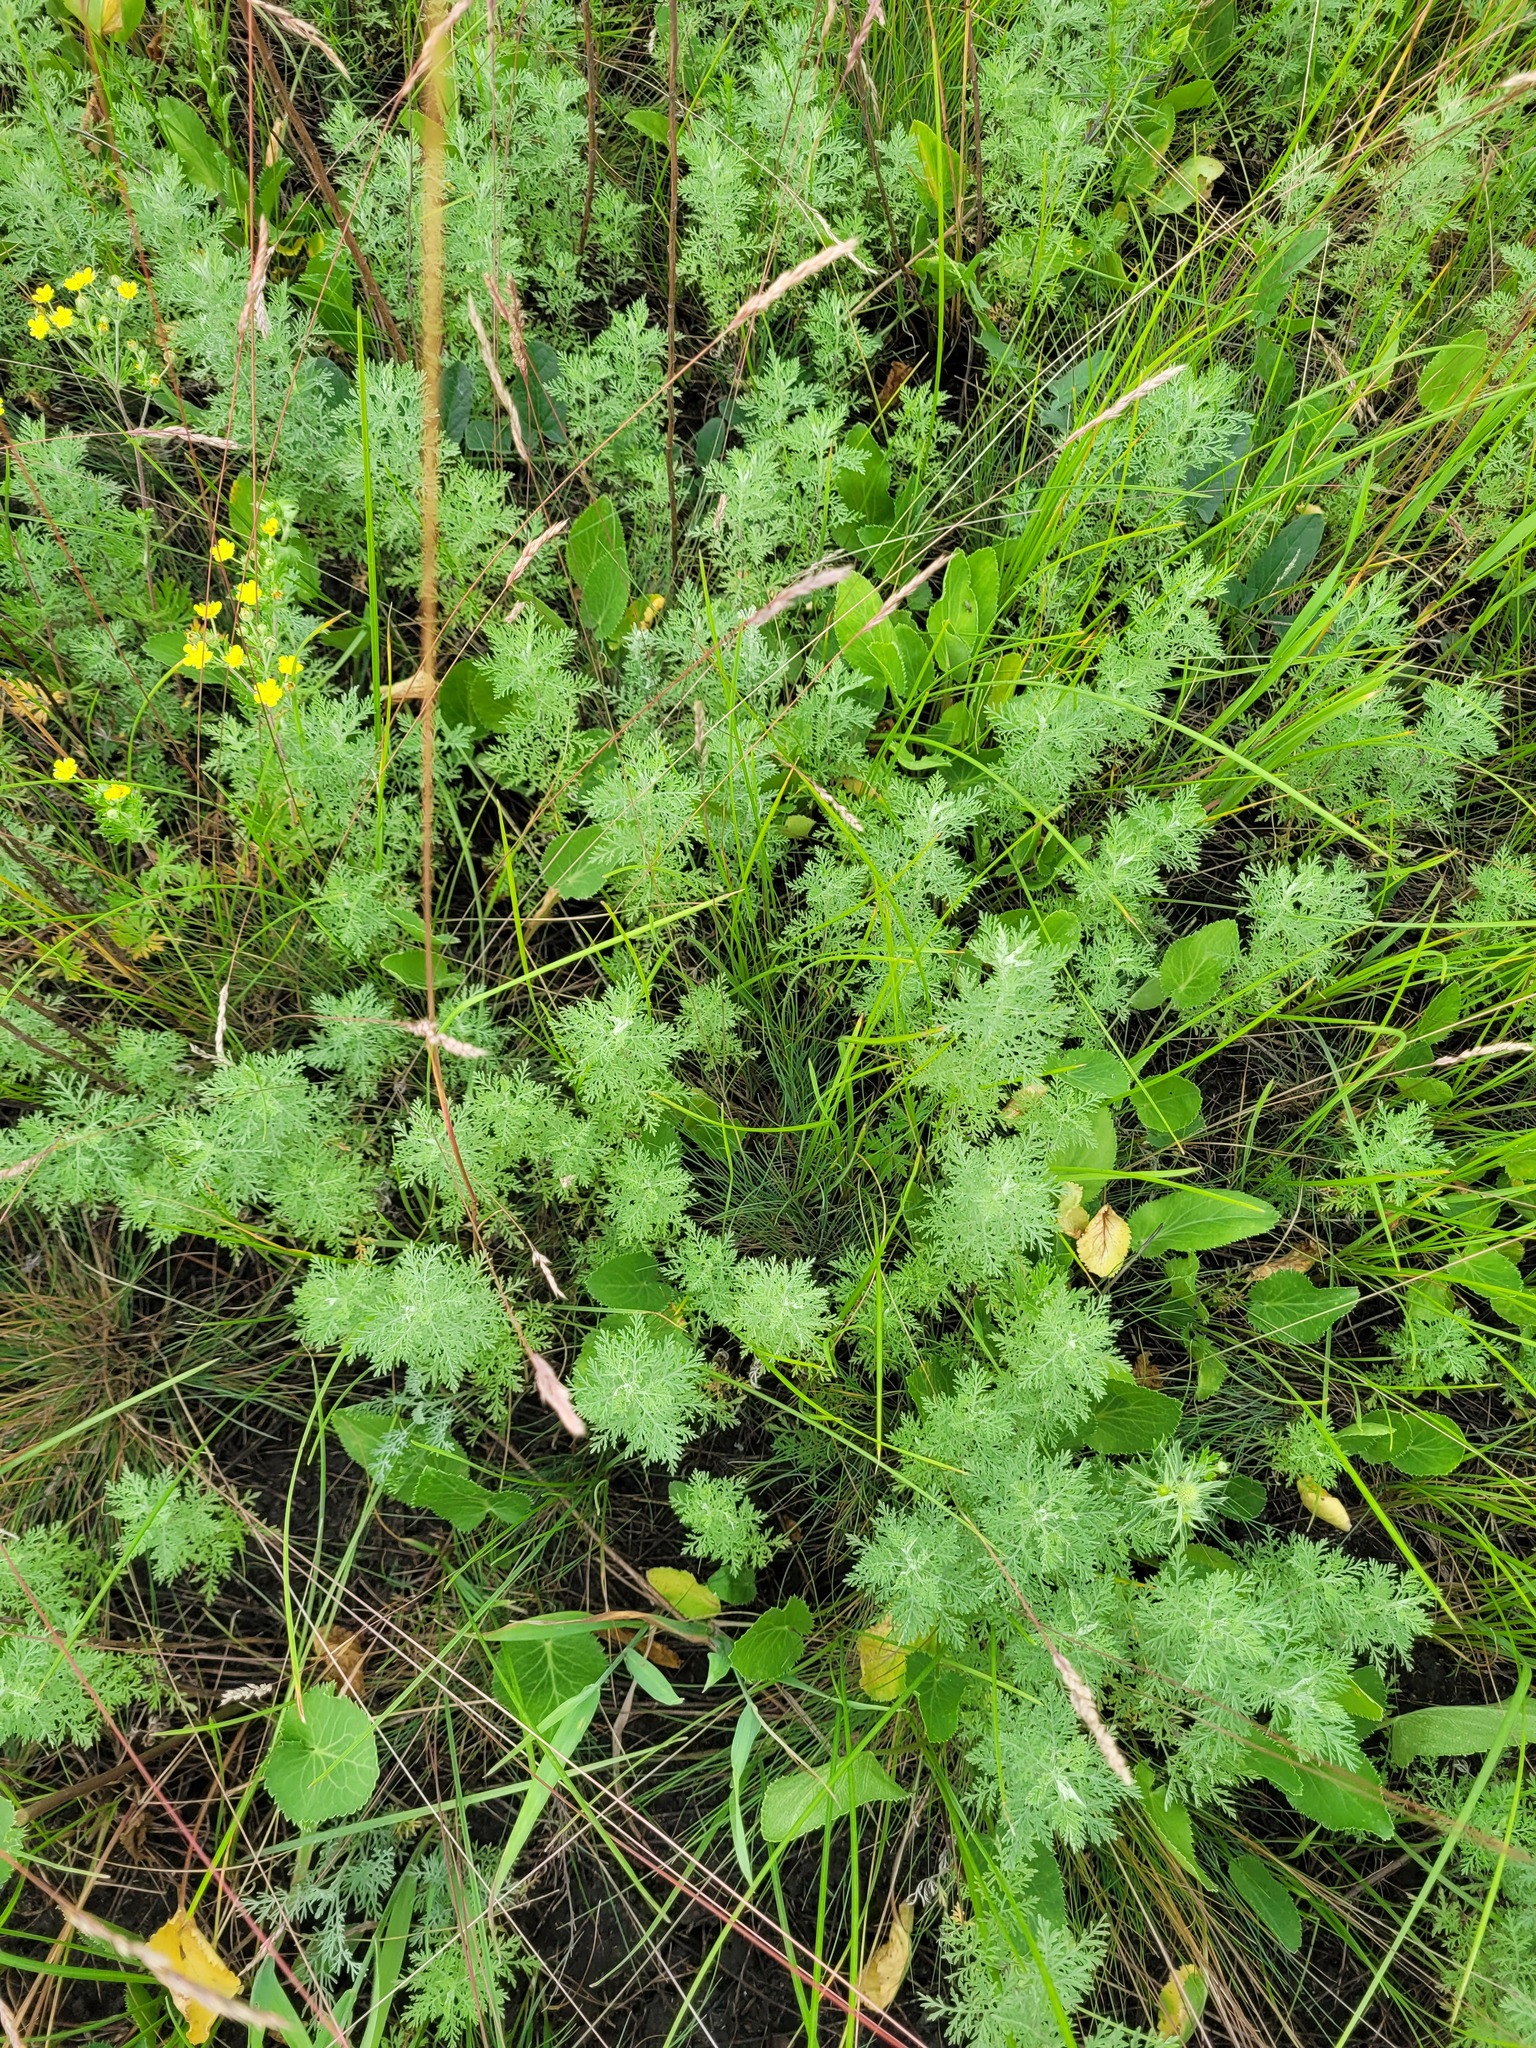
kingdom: Plantae
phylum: Tracheophyta
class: Magnoliopsida
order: Asterales
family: Asteraceae
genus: Artemisia
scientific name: Artemisia pontica
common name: Roman wormwood
